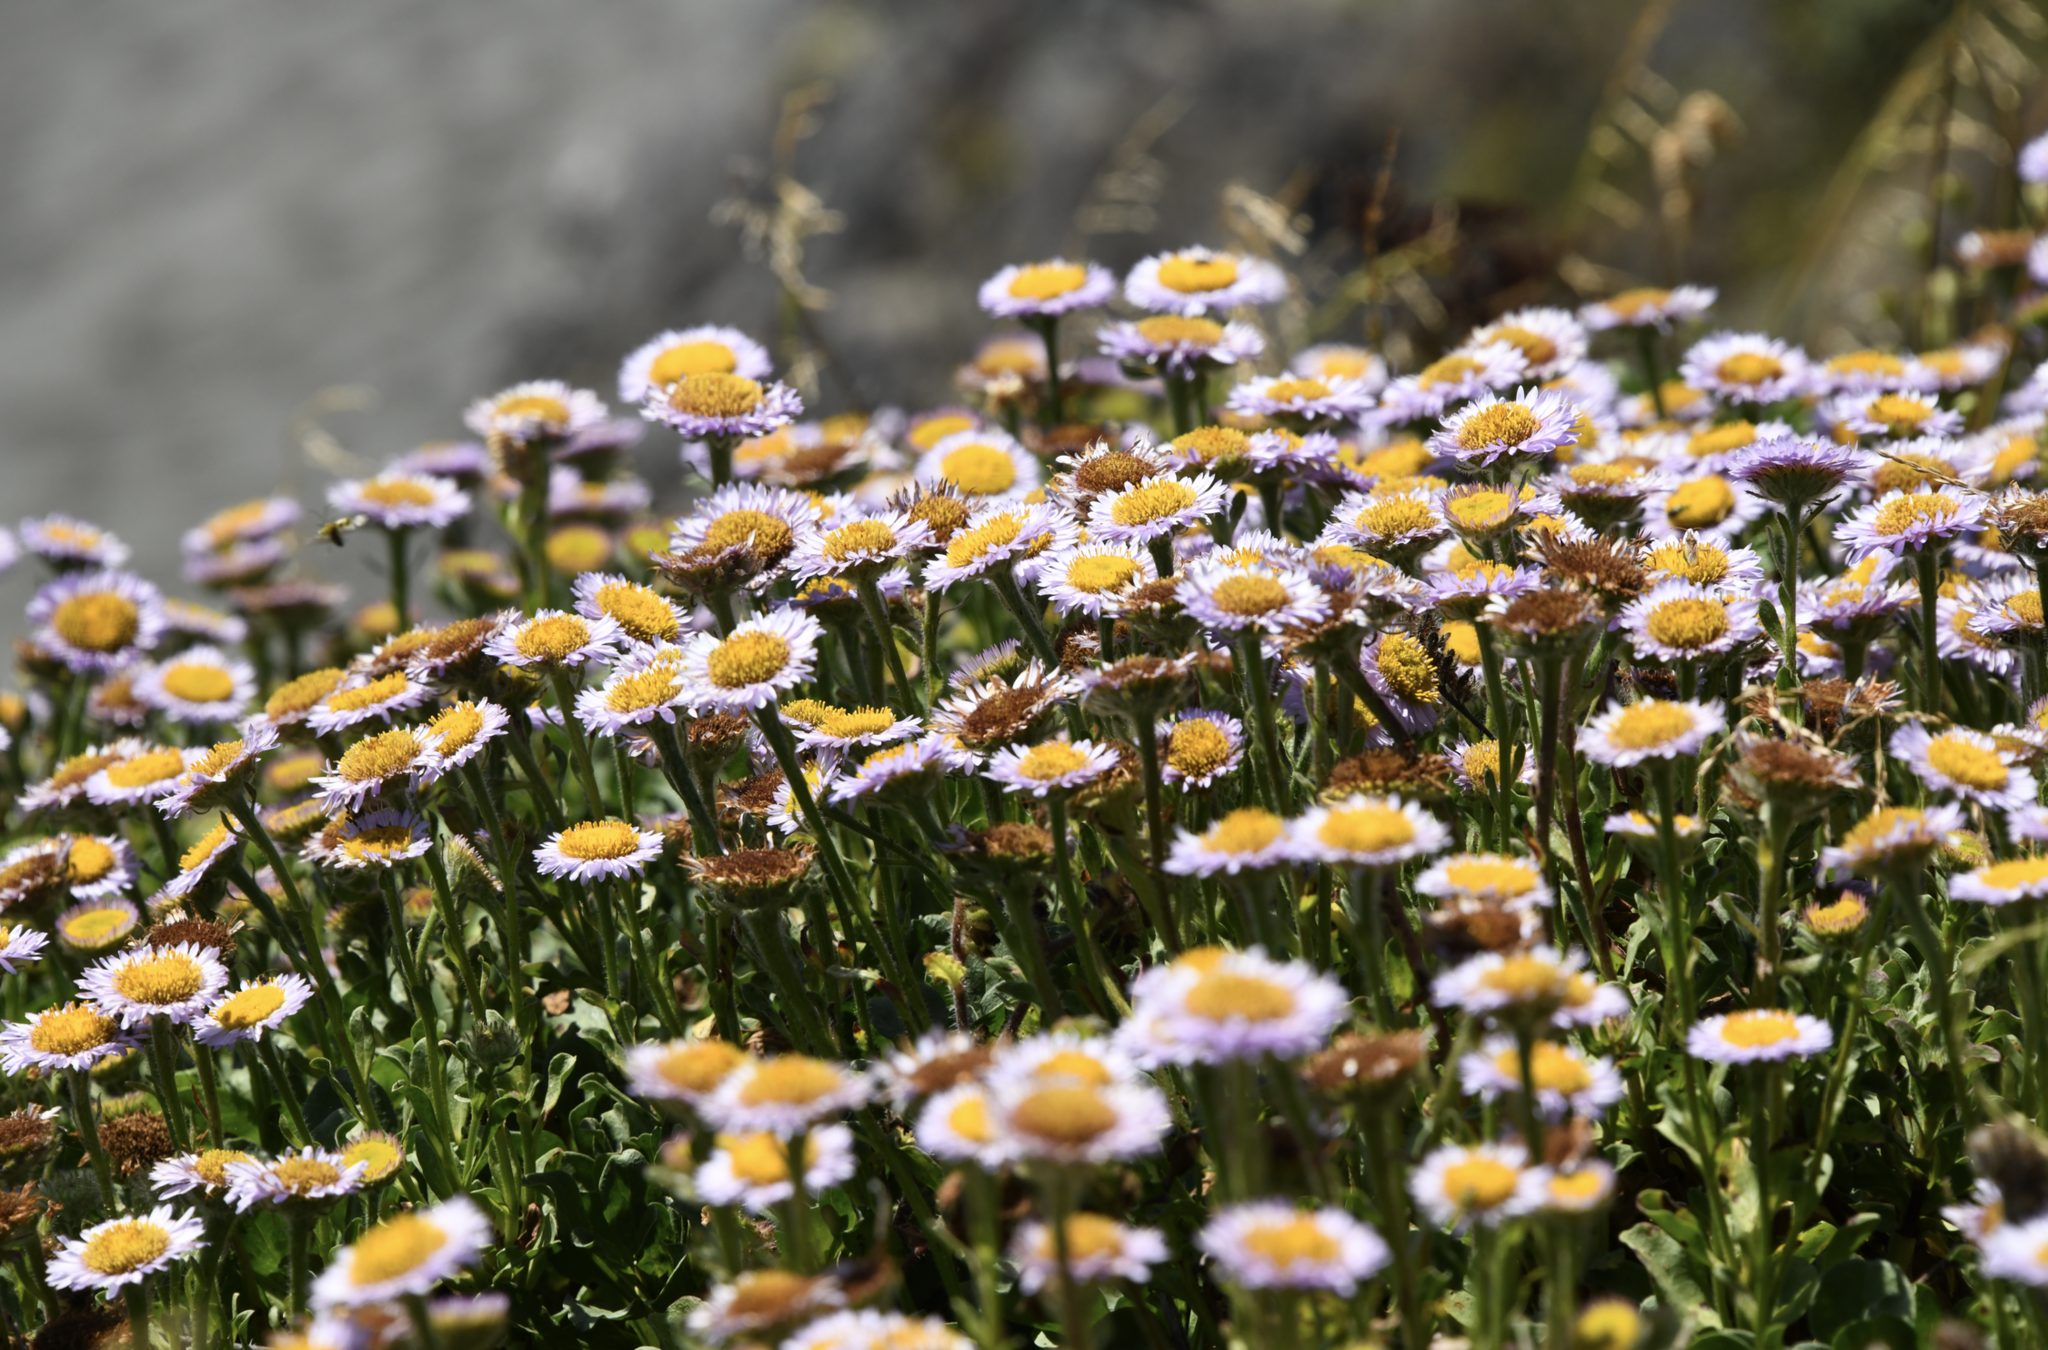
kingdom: Plantae
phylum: Tracheophyta
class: Magnoliopsida
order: Asterales
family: Asteraceae
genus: Erigeron
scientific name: Erigeron glaucus
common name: Seaside daisy
